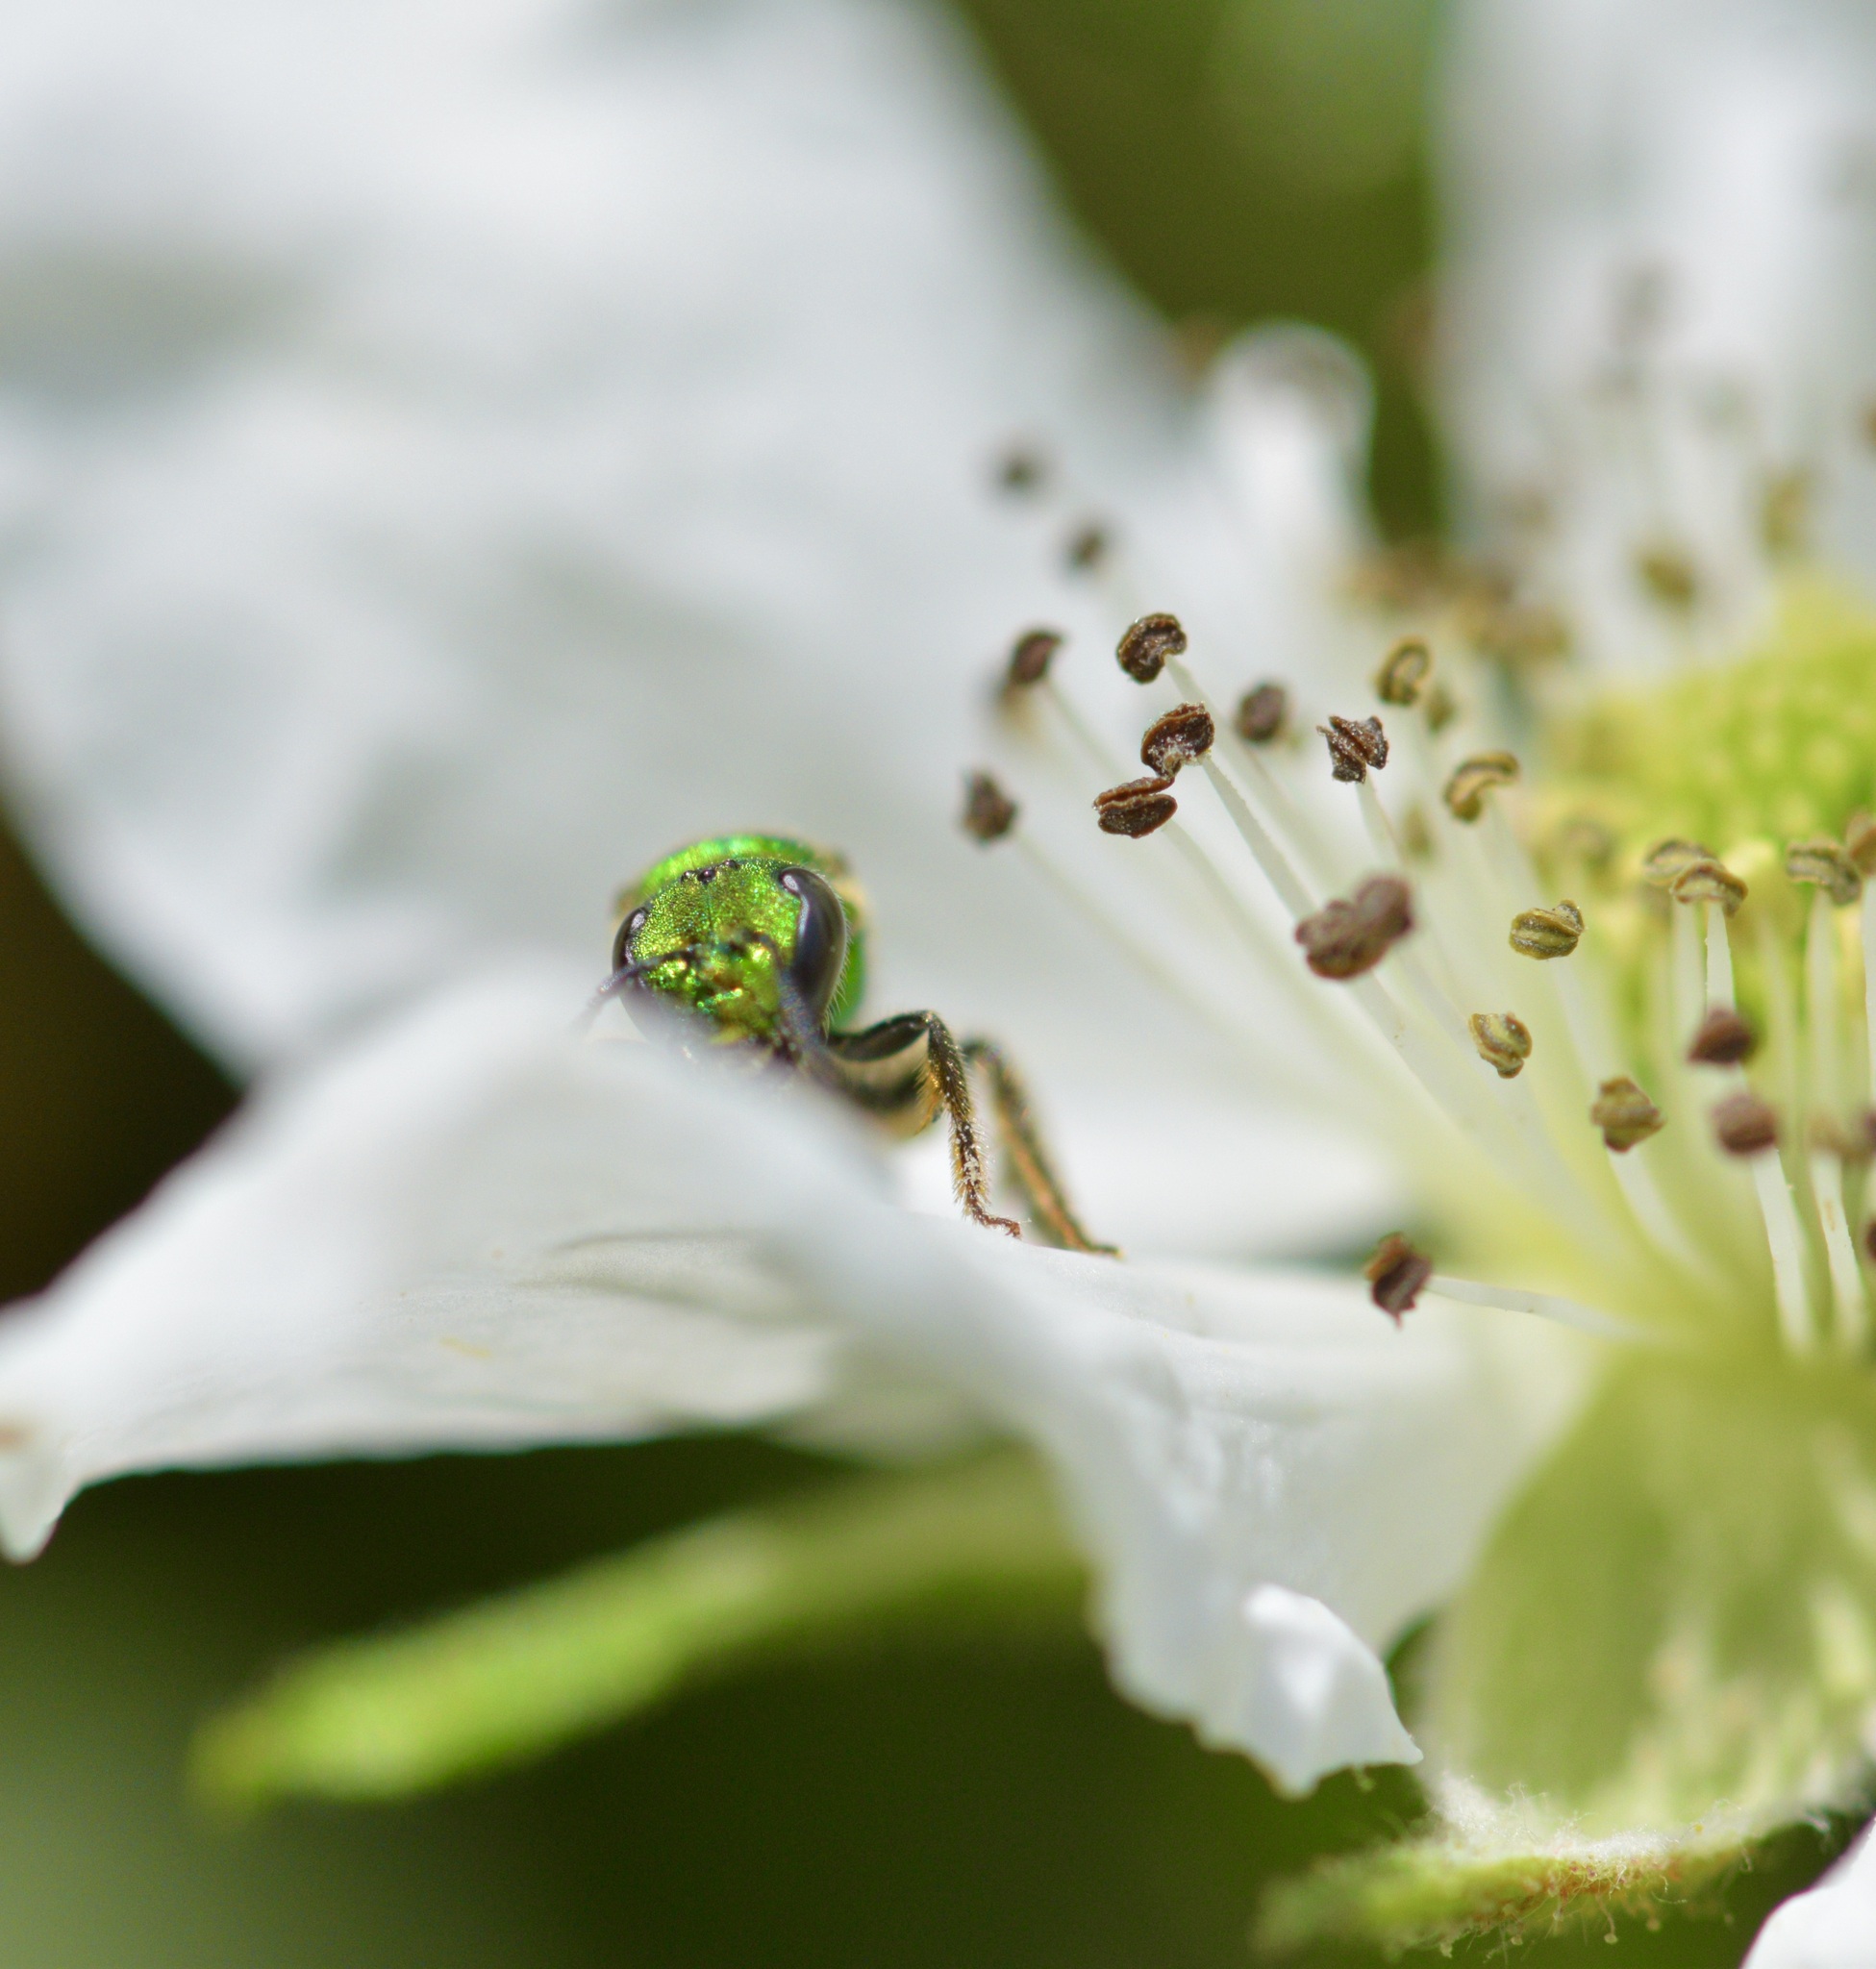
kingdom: Animalia
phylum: Arthropoda
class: Insecta
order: Hymenoptera
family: Halictidae
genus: Augochlora
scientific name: Augochlora pura
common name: Pure green sweat bee
